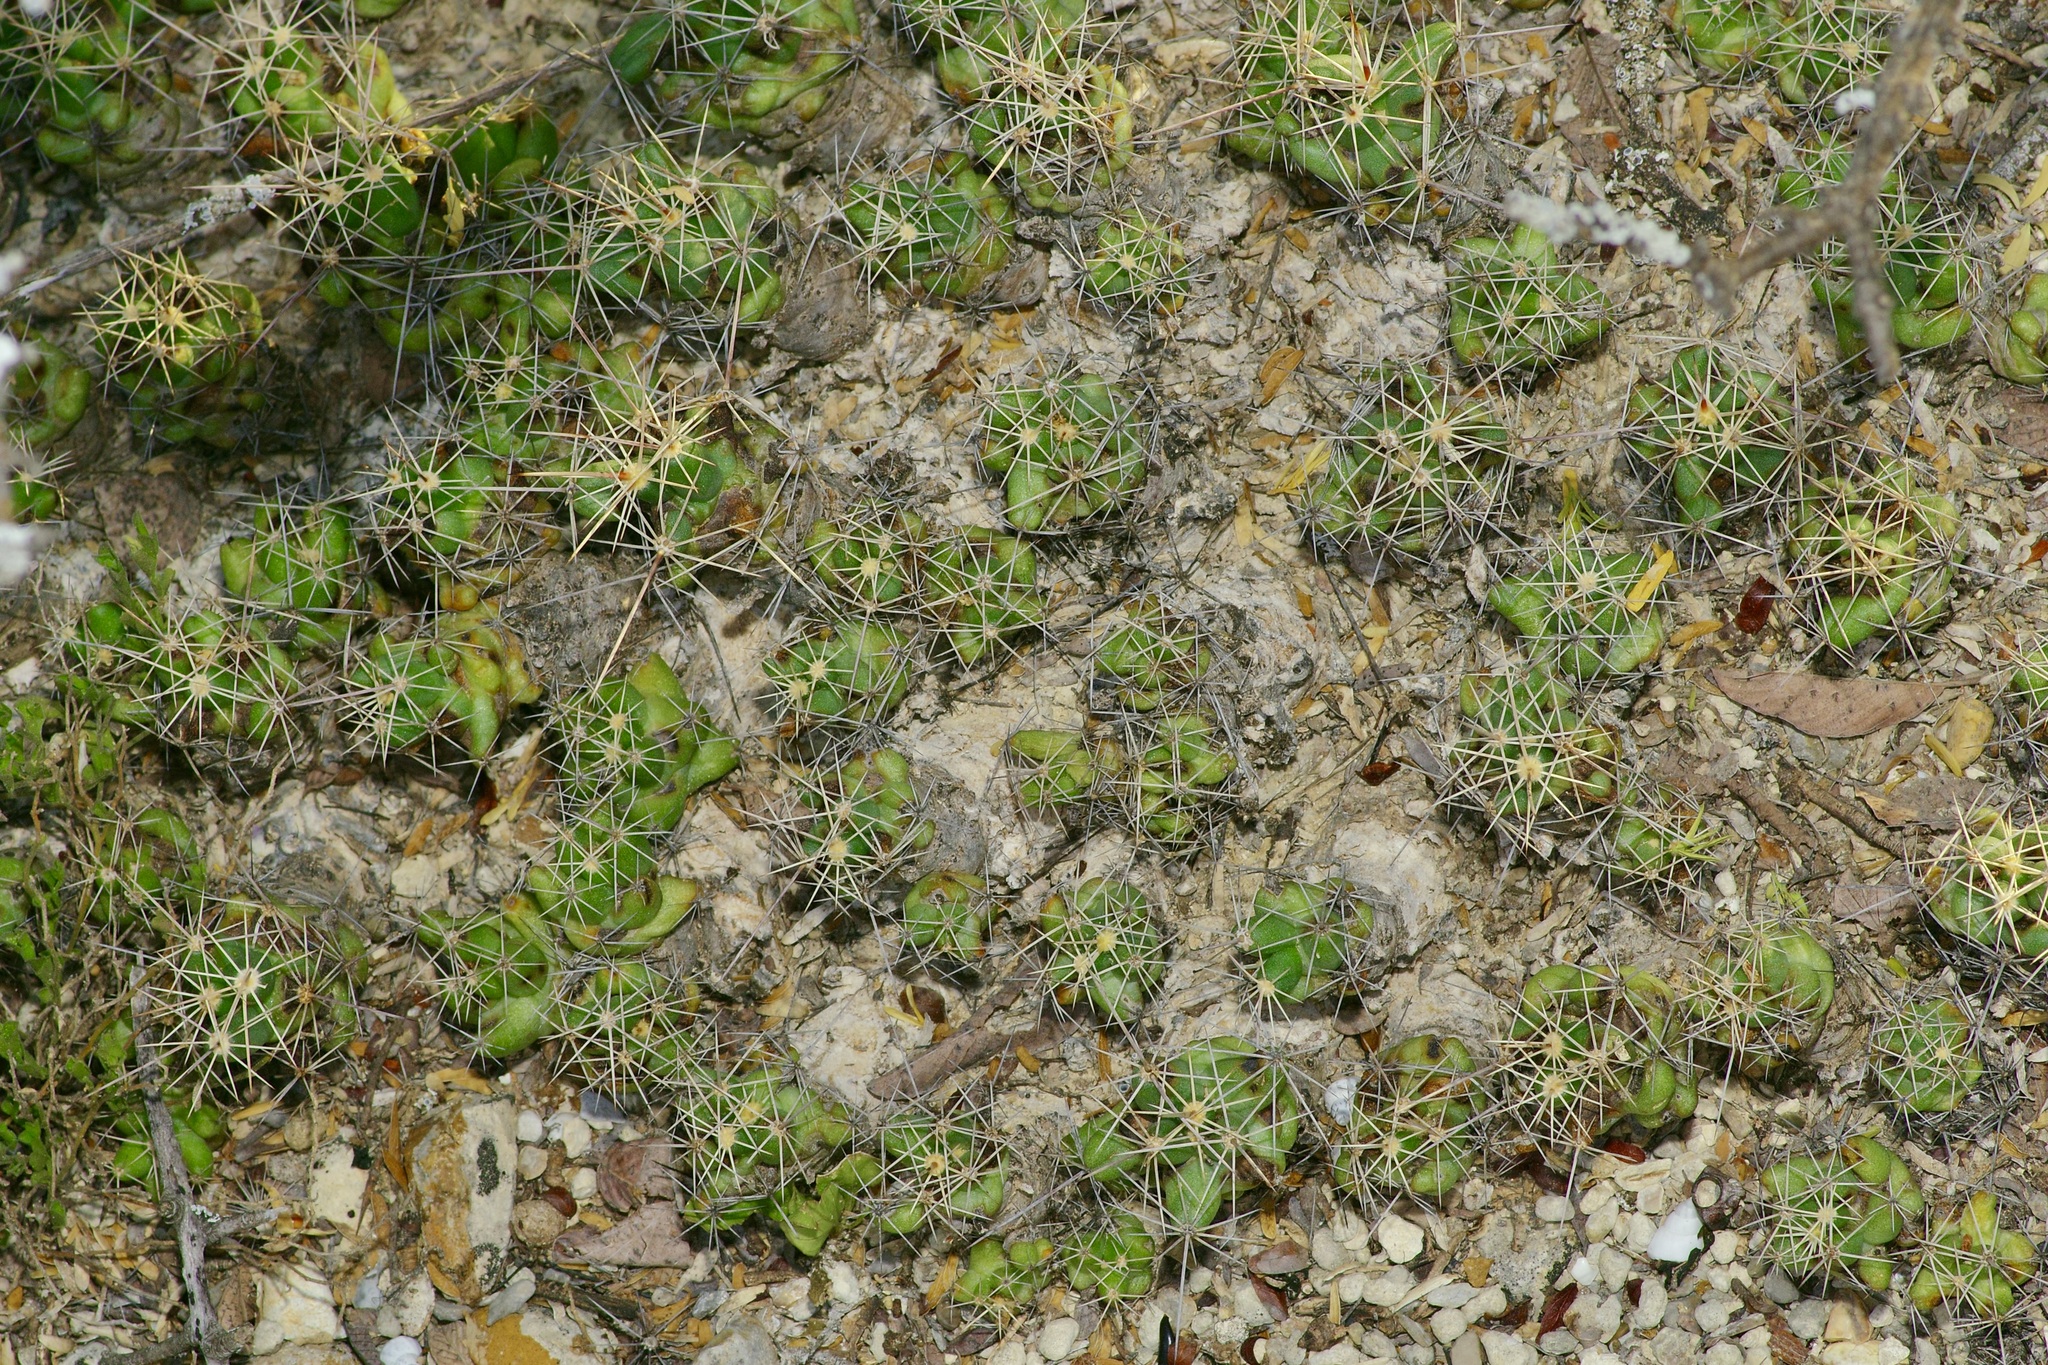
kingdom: Plantae
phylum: Tracheophyta
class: Magnoliopsida
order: Caryophyllales
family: Cactaceae
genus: Pelecyphora
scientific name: Pelecyphora macromeris
